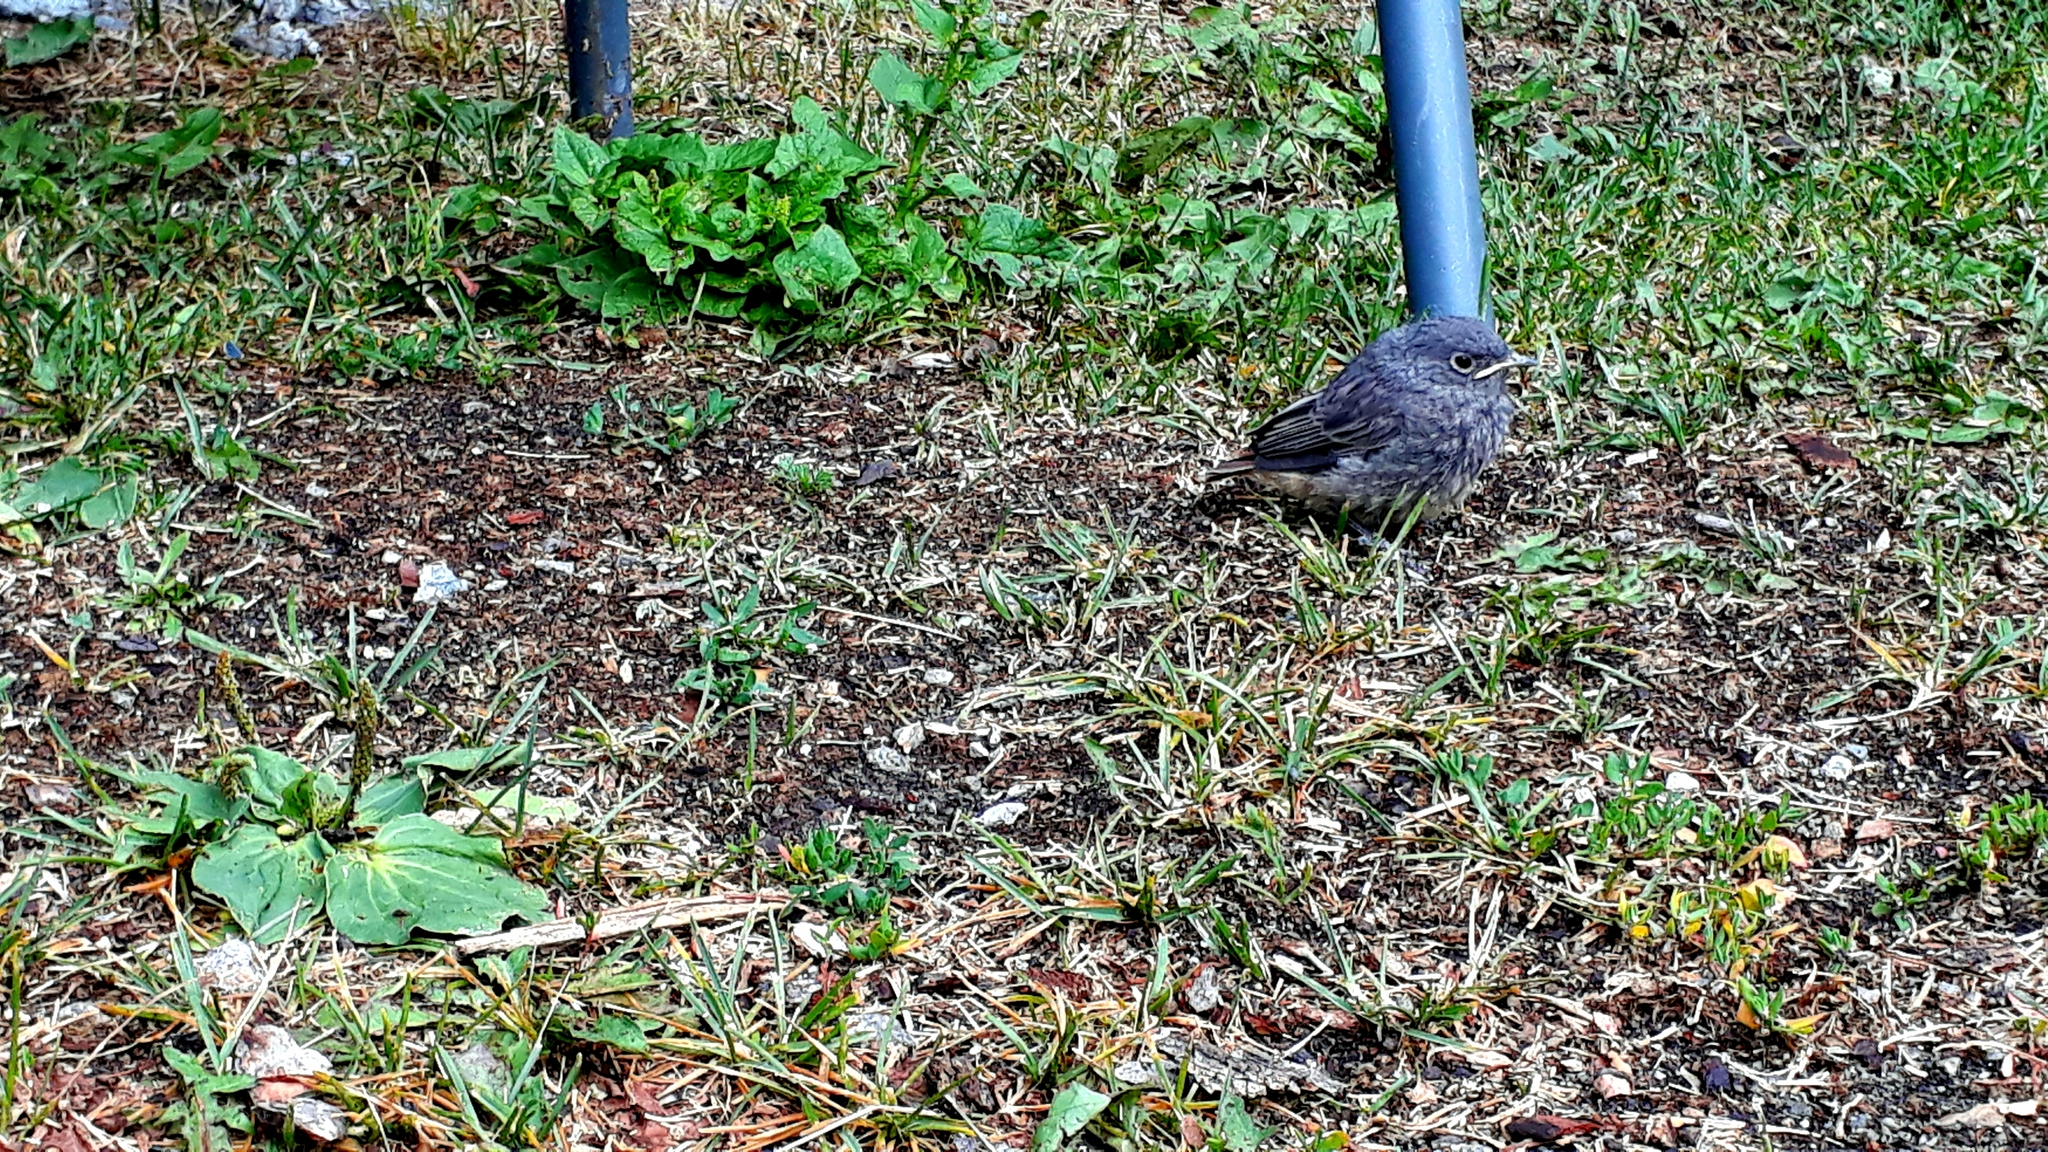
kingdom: Animalia
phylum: Chordata
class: Aves
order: Passeriformes
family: Muscicapidae
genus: Phoenicurus
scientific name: Phoenicurus phoenicurus
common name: Common redstart
